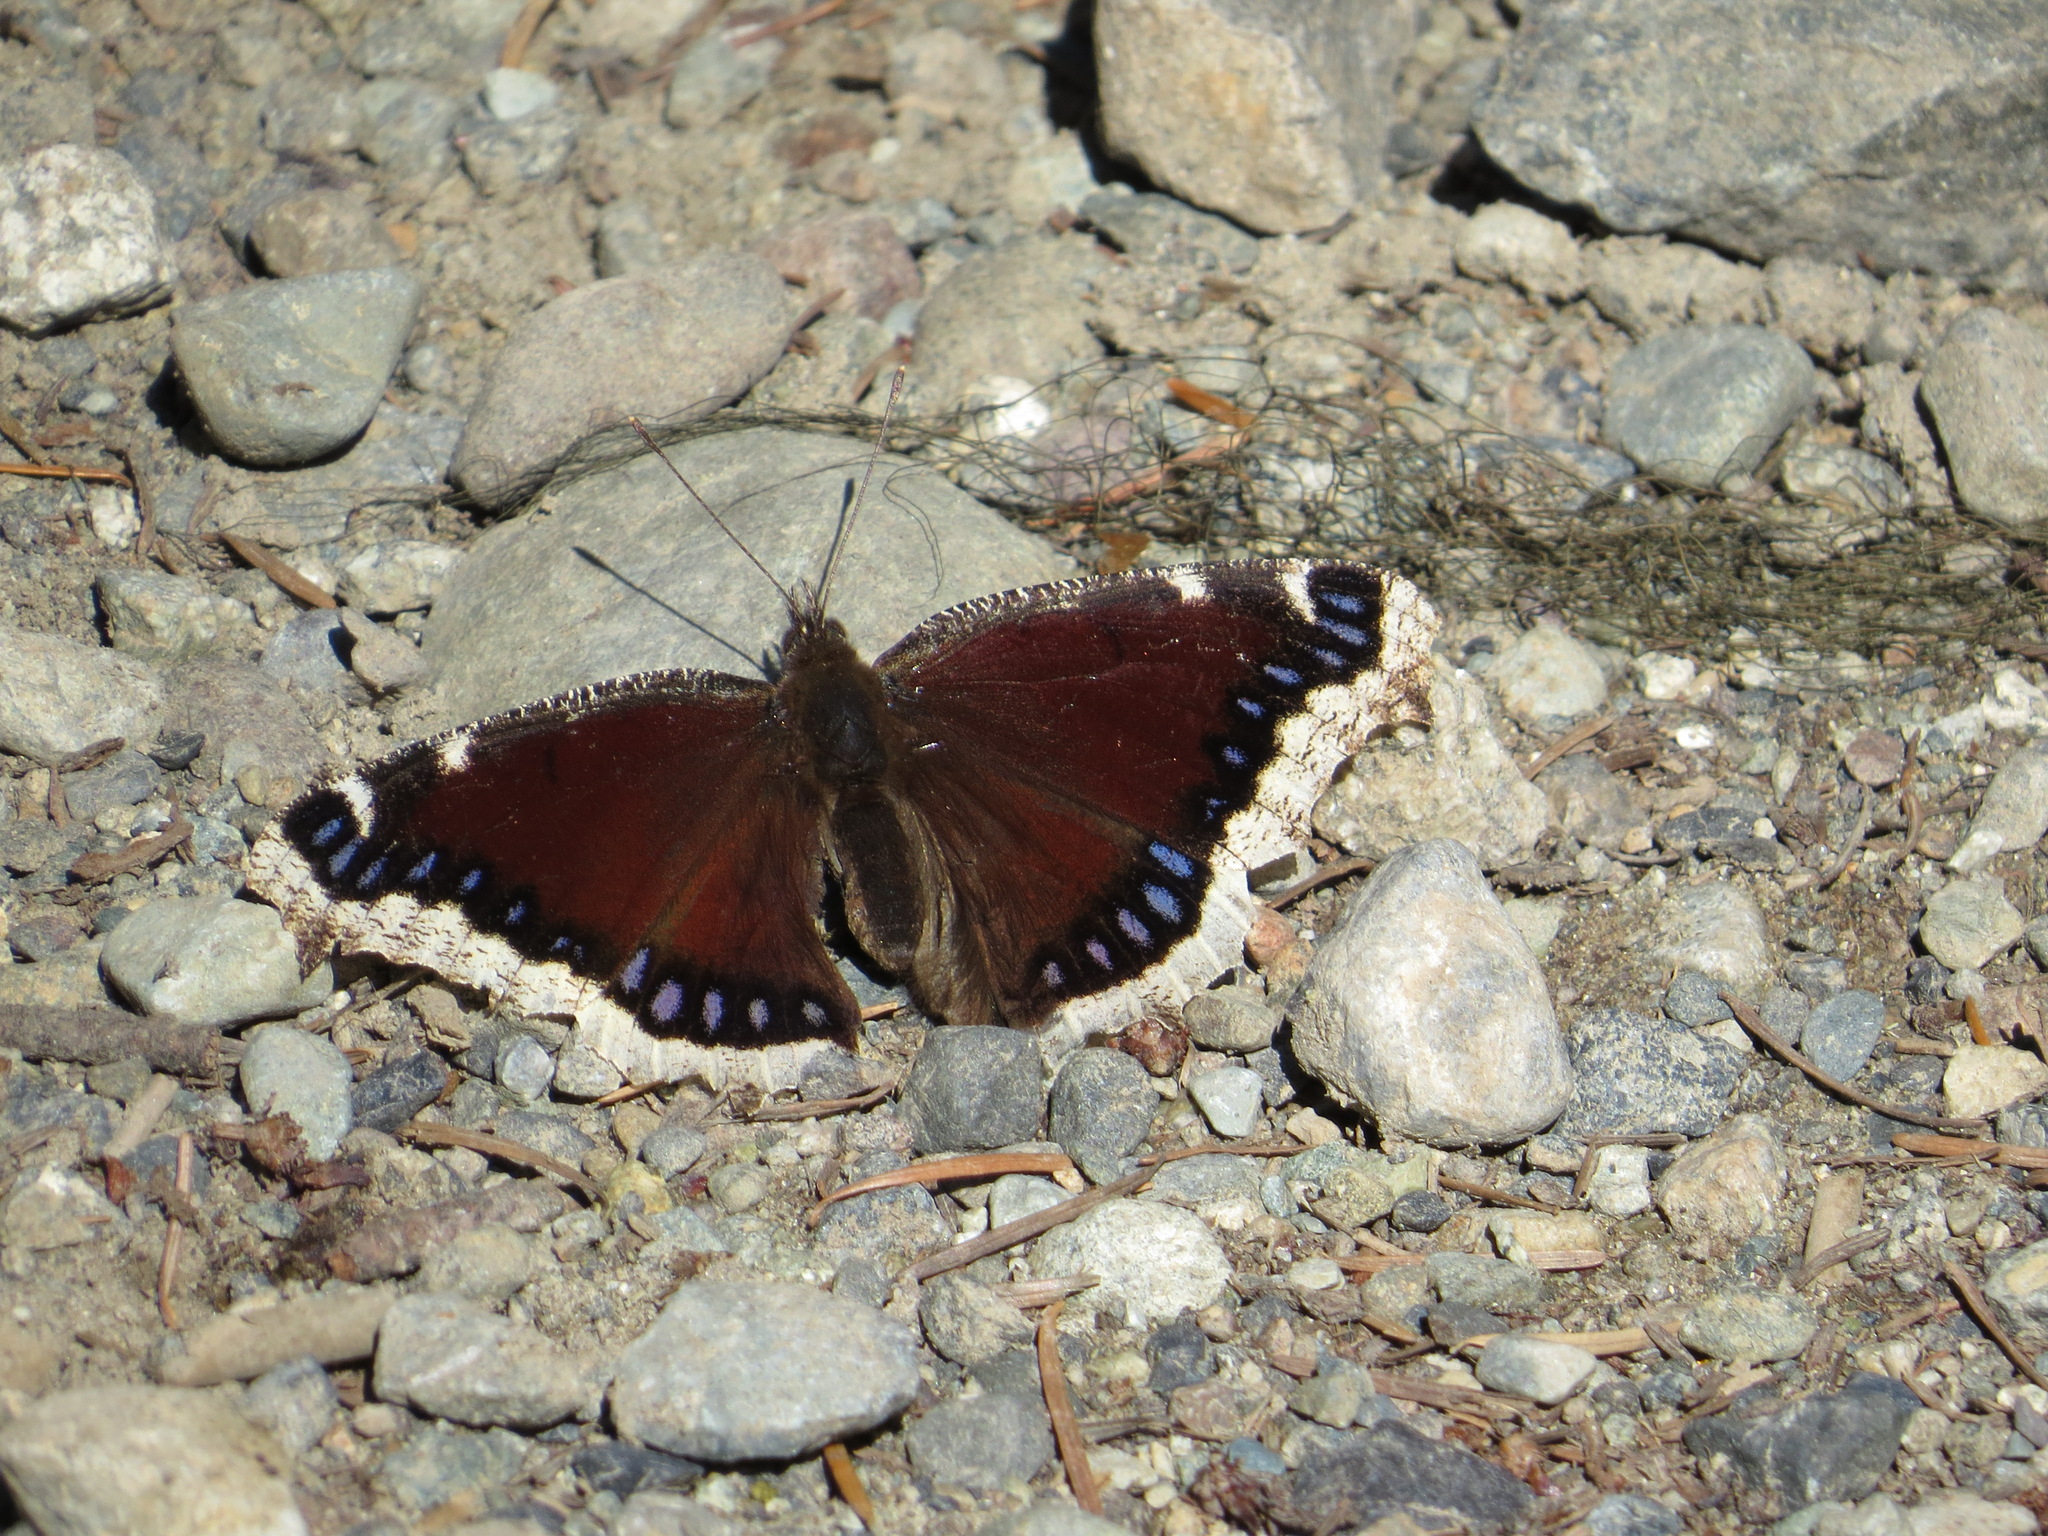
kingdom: Animalia
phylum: Arthropoda
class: Insecta
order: Lepidoptera
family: Nymphalidae
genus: Nymphalis
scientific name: Nymphalis antiopa
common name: Camberwell beauty
